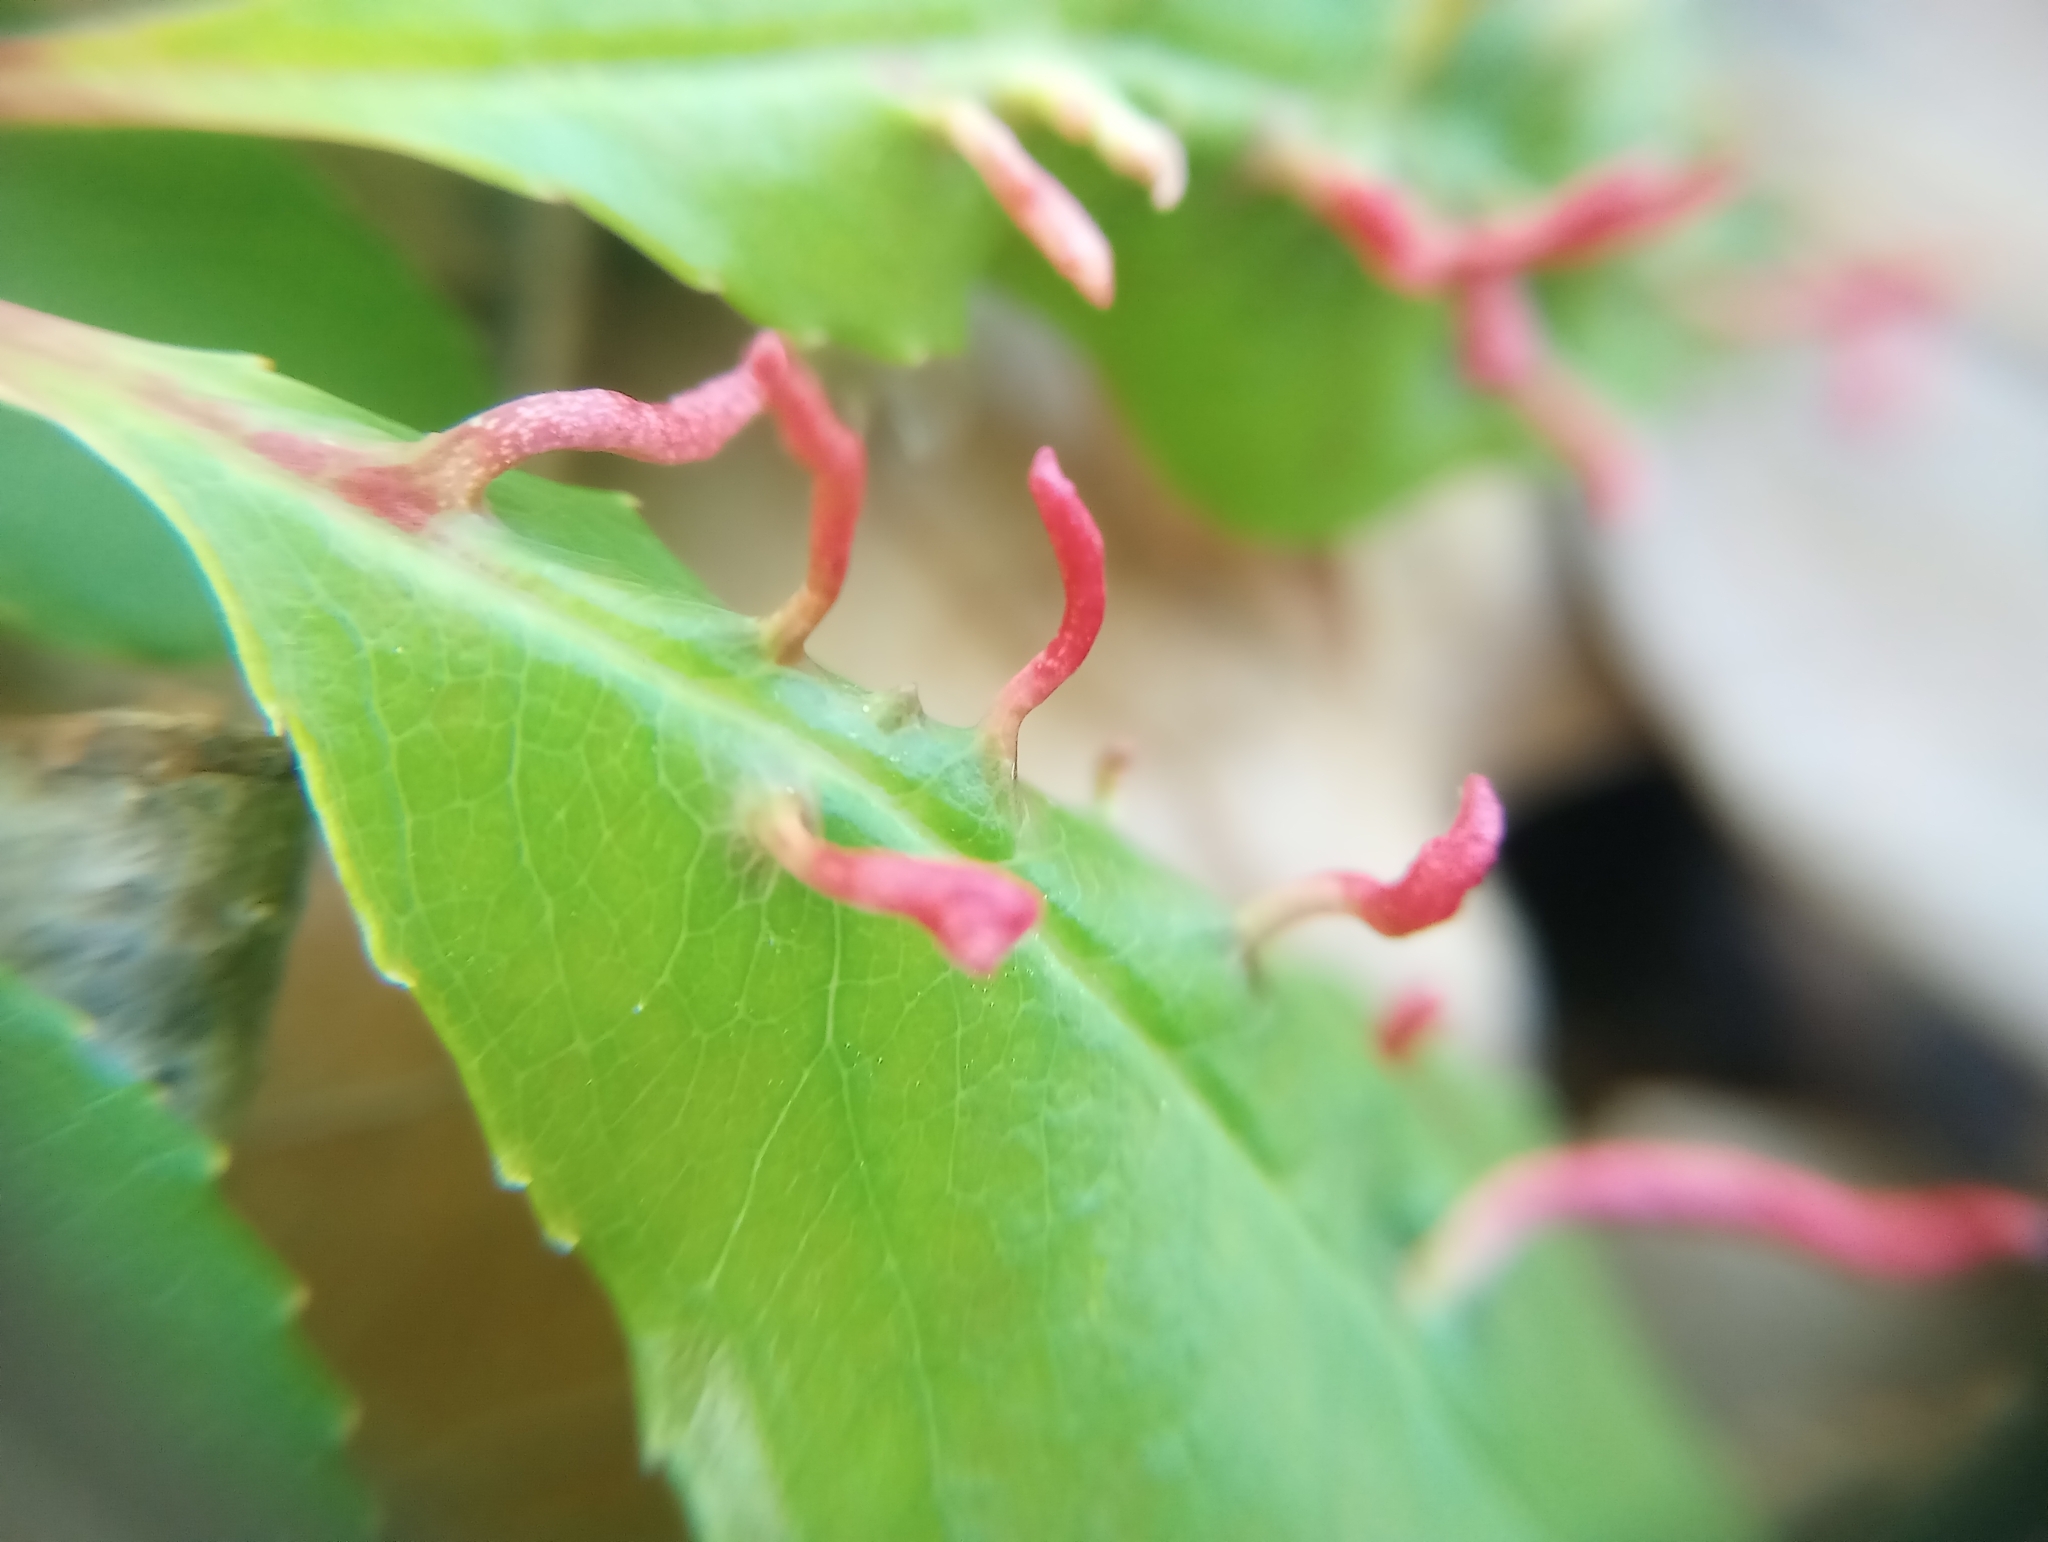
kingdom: Animalia
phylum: Arthropoda
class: Arachnida
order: Trombidiformes
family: Eriophyidae
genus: Eriophyes
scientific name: Eriophyes
